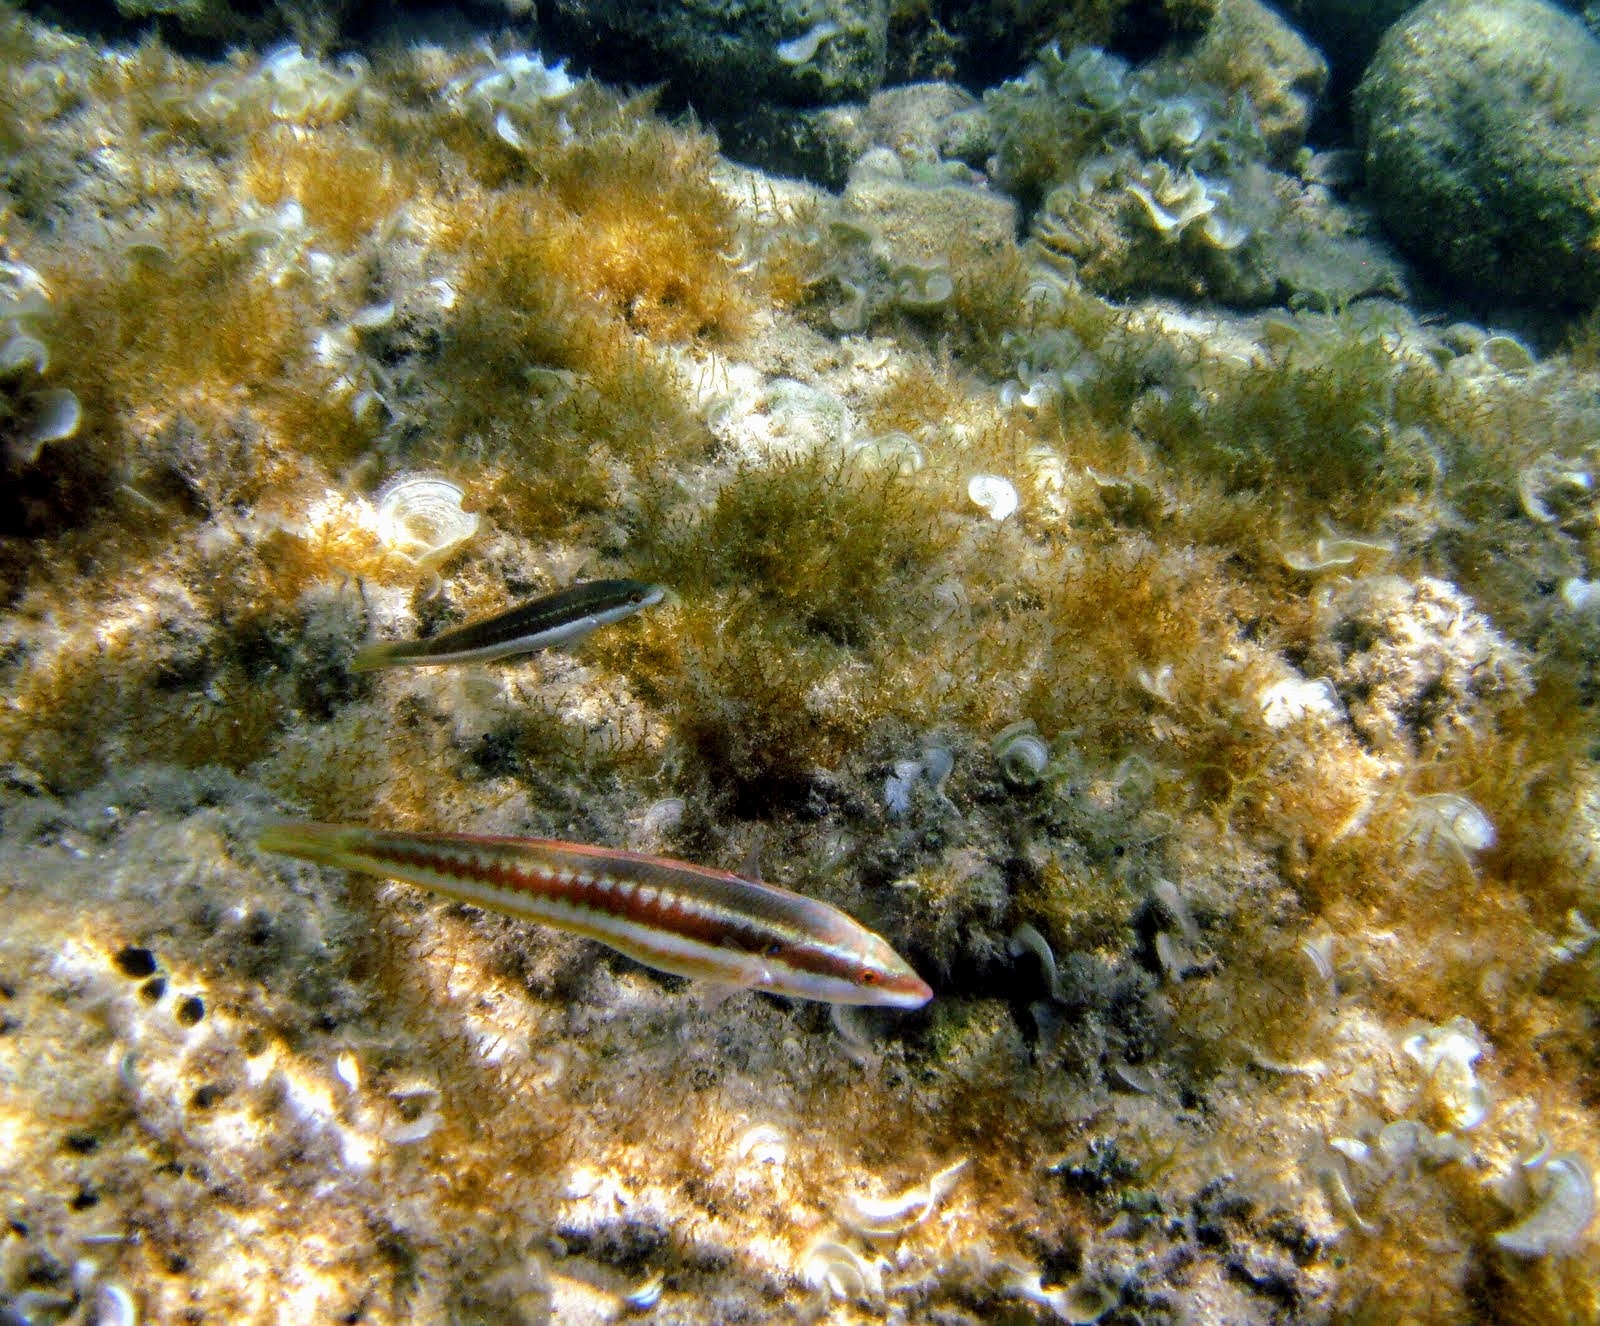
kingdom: Animalia
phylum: Chordata
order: Perciformes
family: Labridae
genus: Coris
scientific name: Coris julis
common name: Rainbow wrasse
